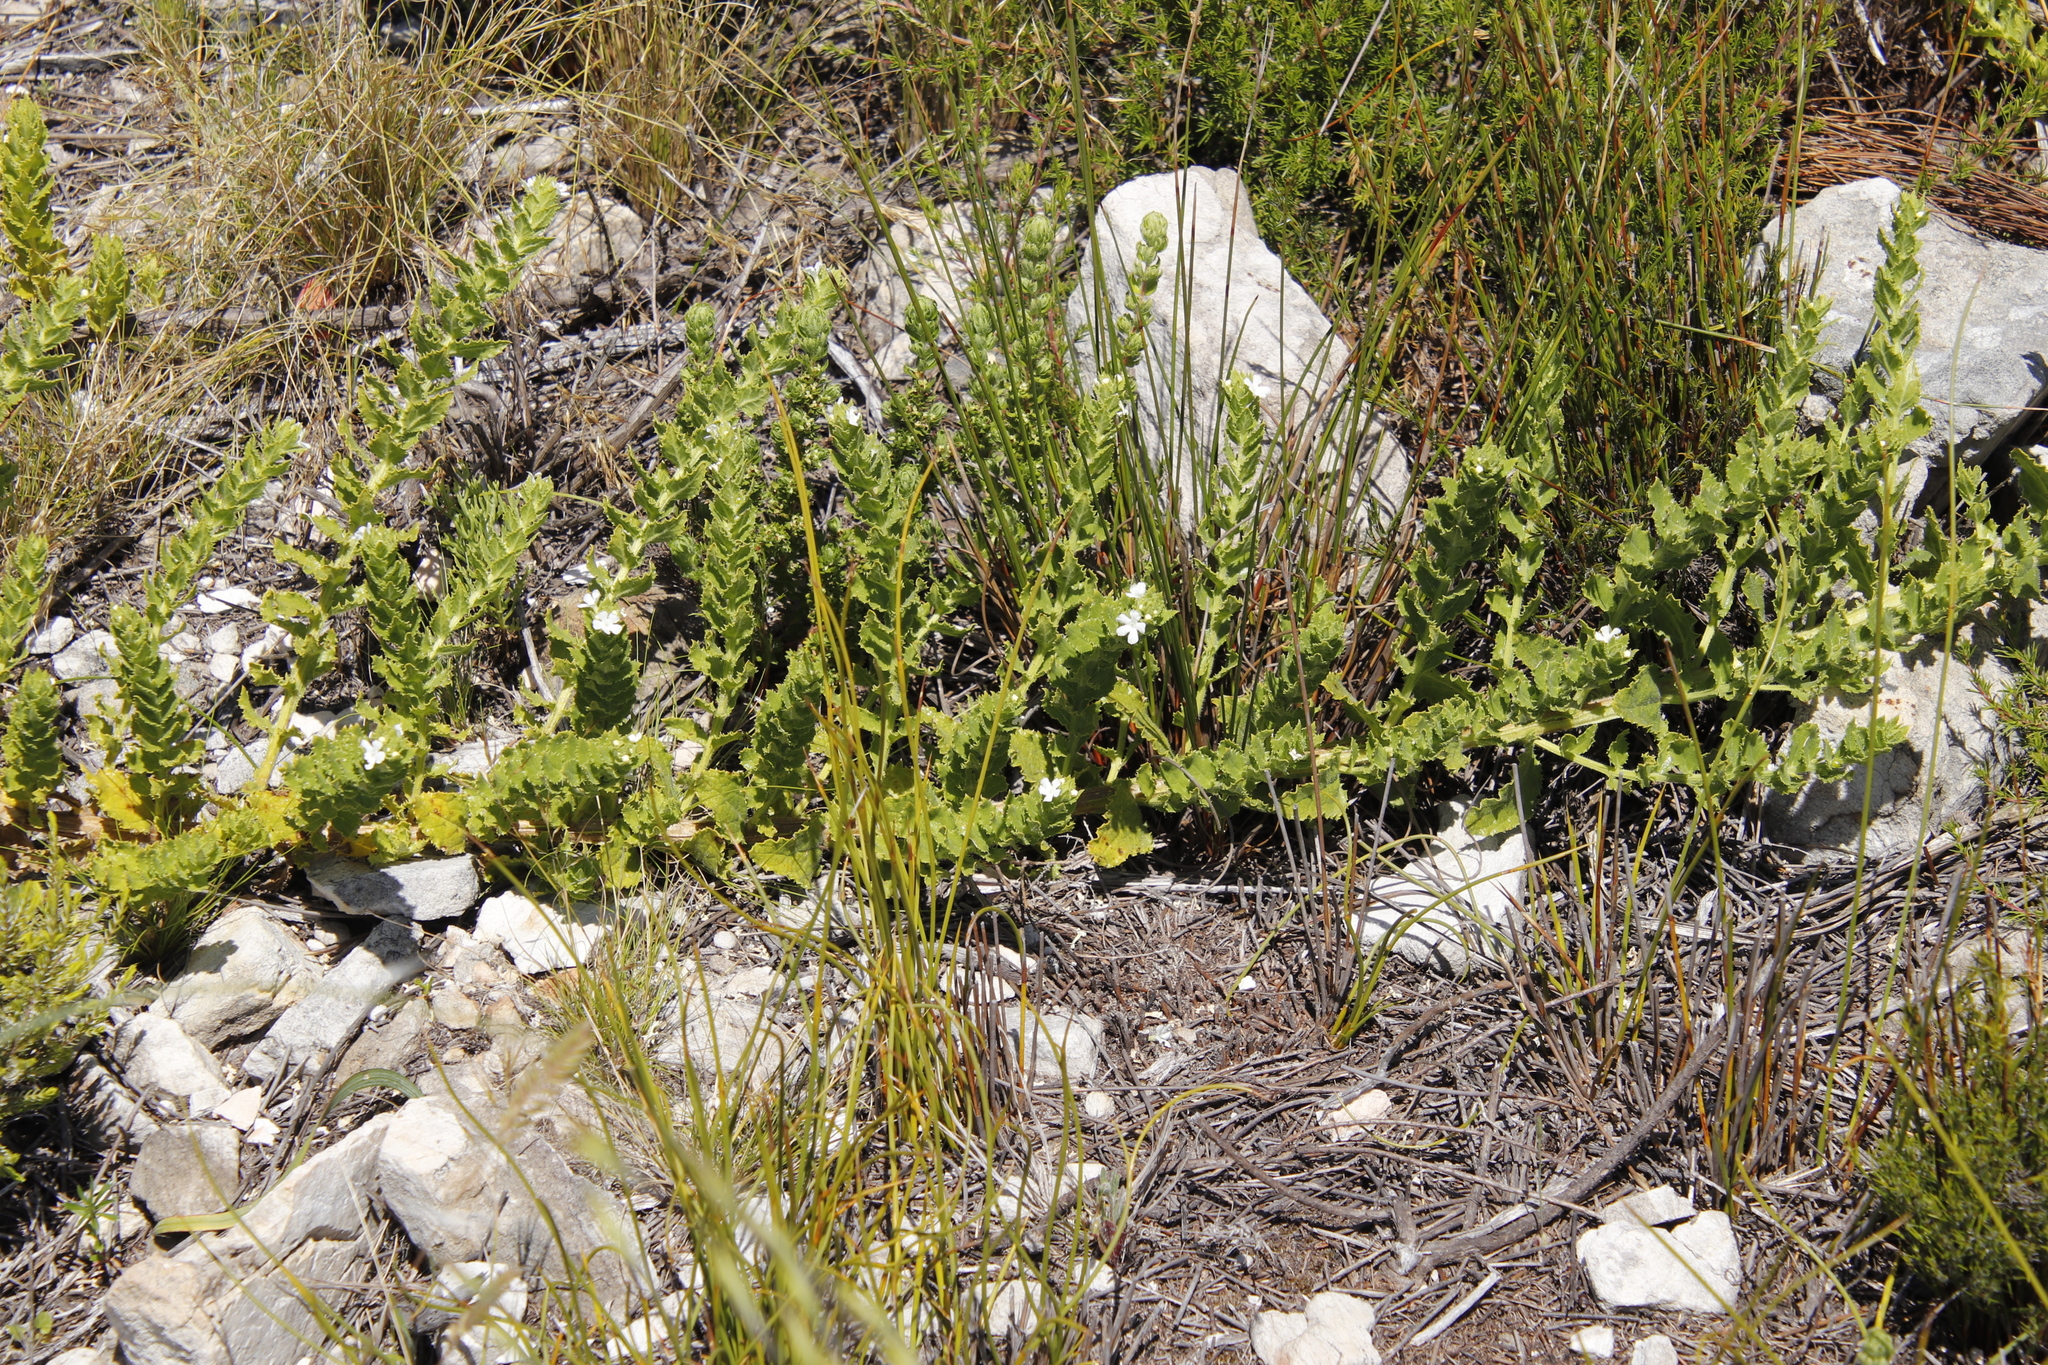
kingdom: Plantae
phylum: Tracheophyta
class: Magnoliopsida
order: Lamiales
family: Scrophulariaceae
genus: Oftia
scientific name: Oftia africana
